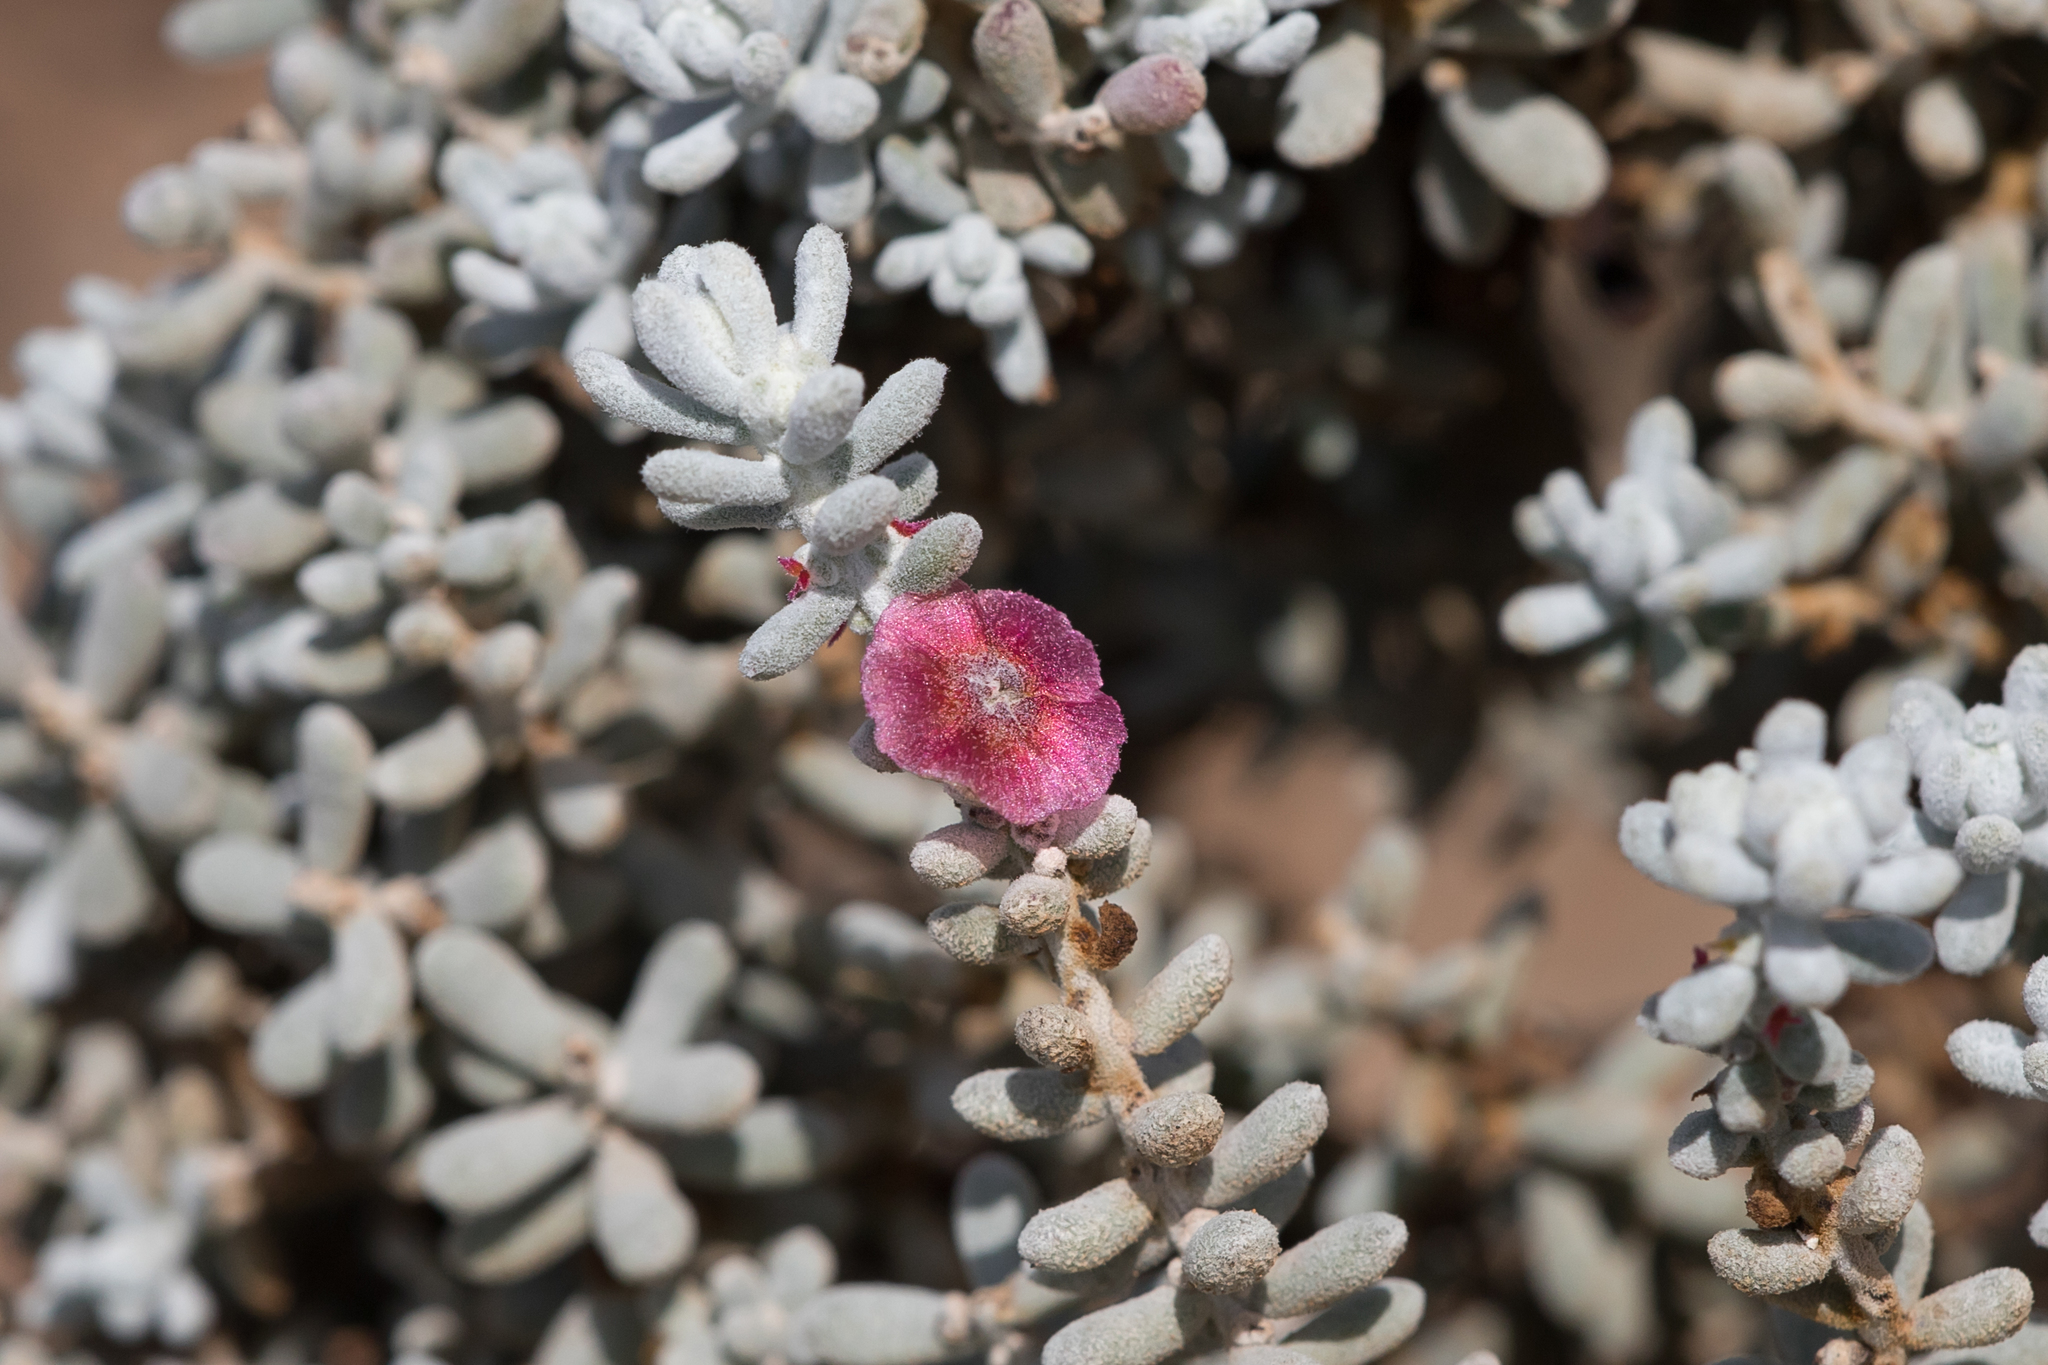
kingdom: Plantae
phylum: Tracheophyta
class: Magnoliopsida
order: Caryophyllales
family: Amaranthaceae
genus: Maireana
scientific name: Maireana sedifolia
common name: Hoary bluebush
